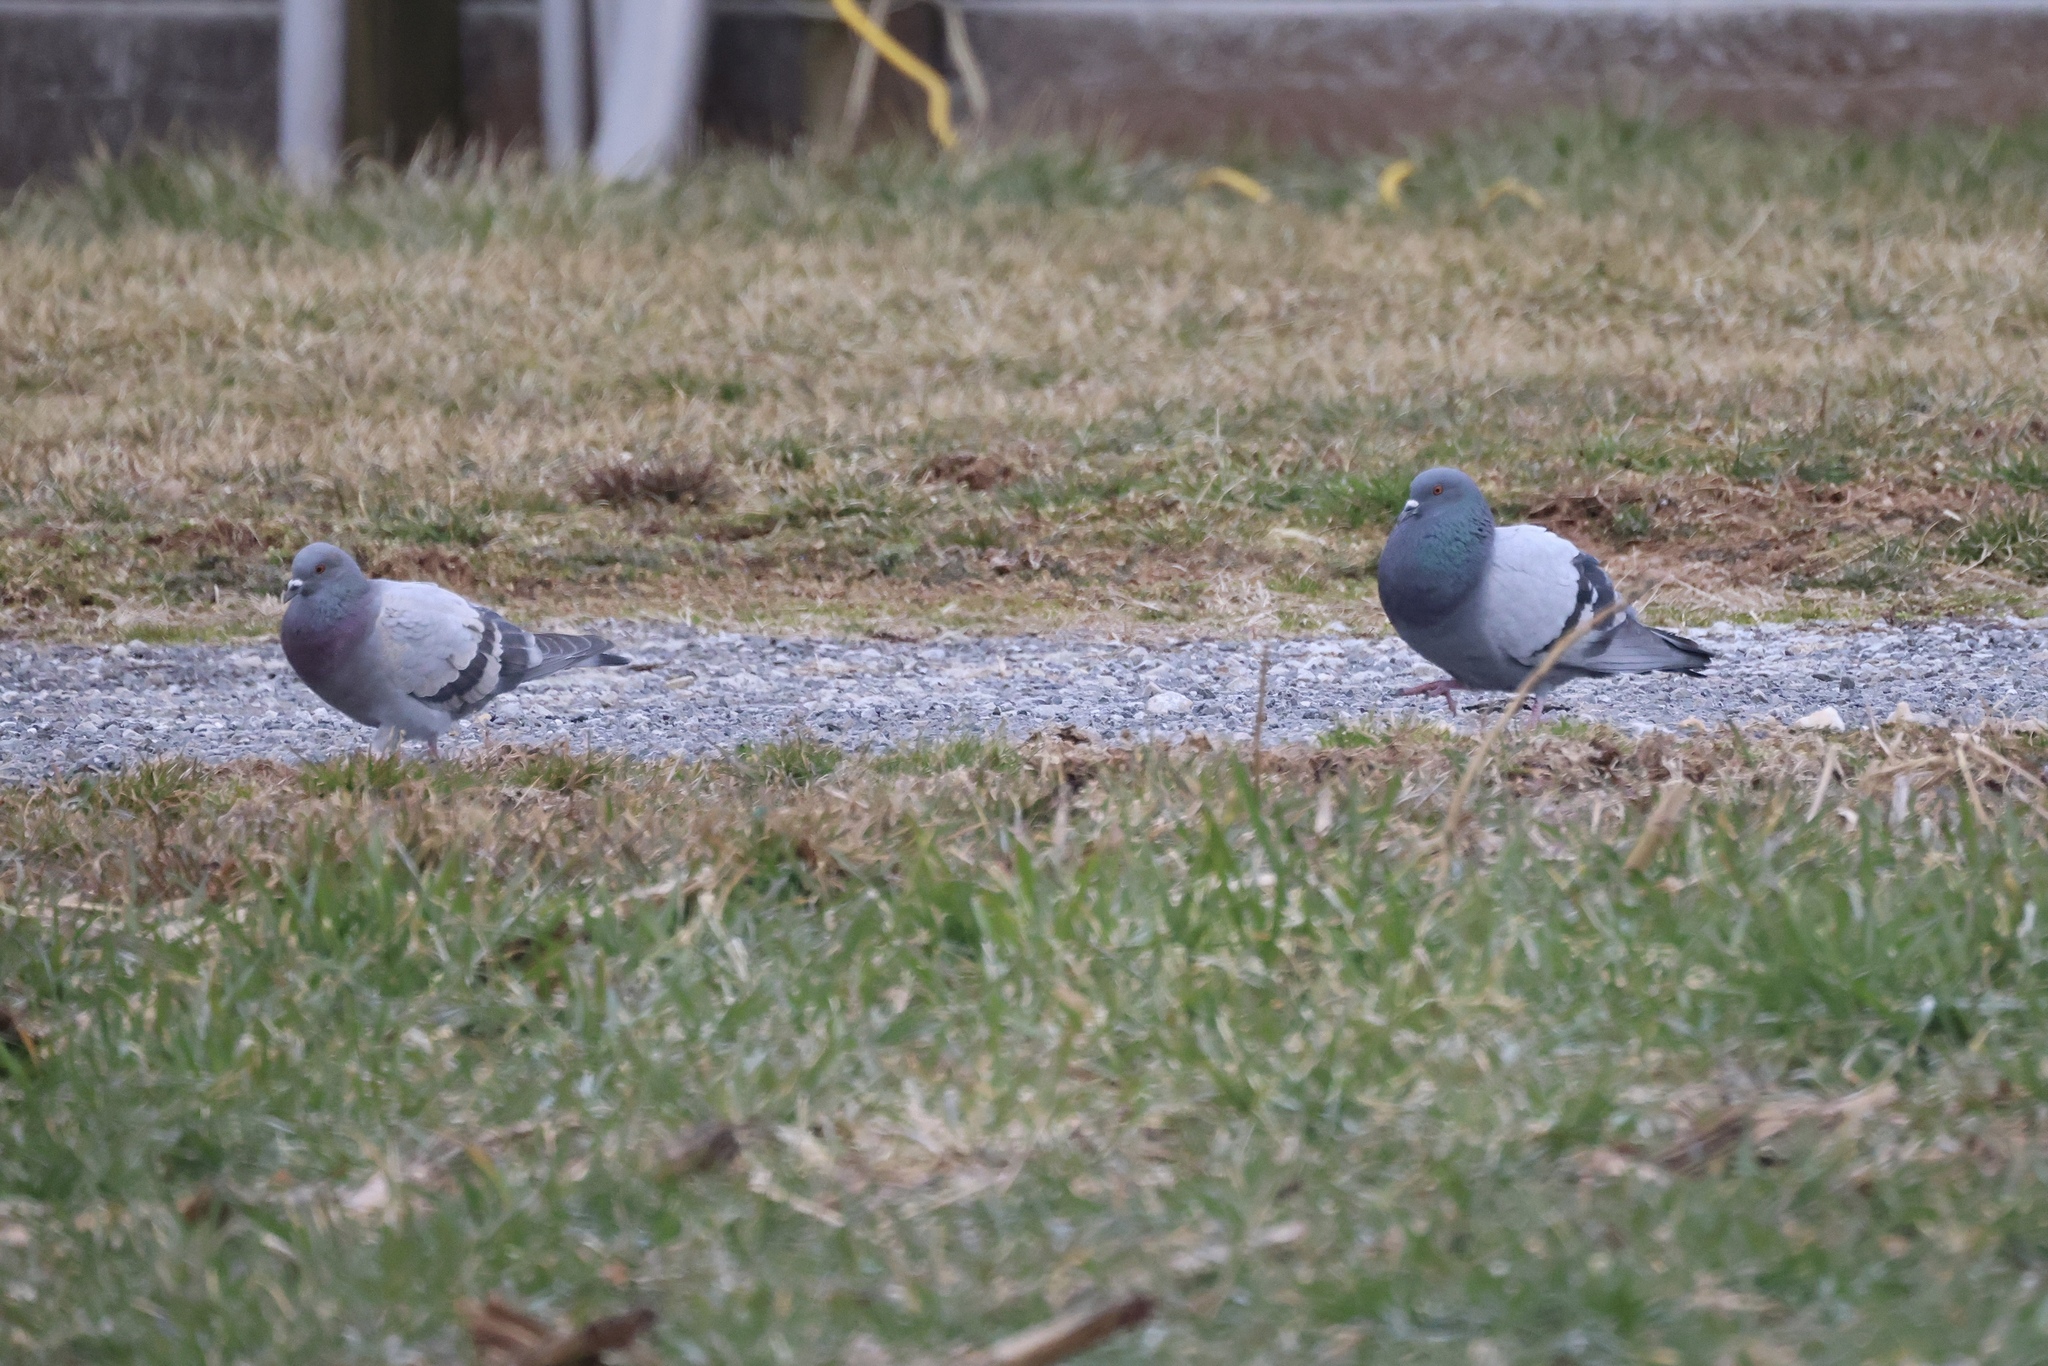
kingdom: Animalia
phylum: Chordata
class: Aves
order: Columbiformes
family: Columbidae
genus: Columba
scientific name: Columba livia
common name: Rock pigeon
